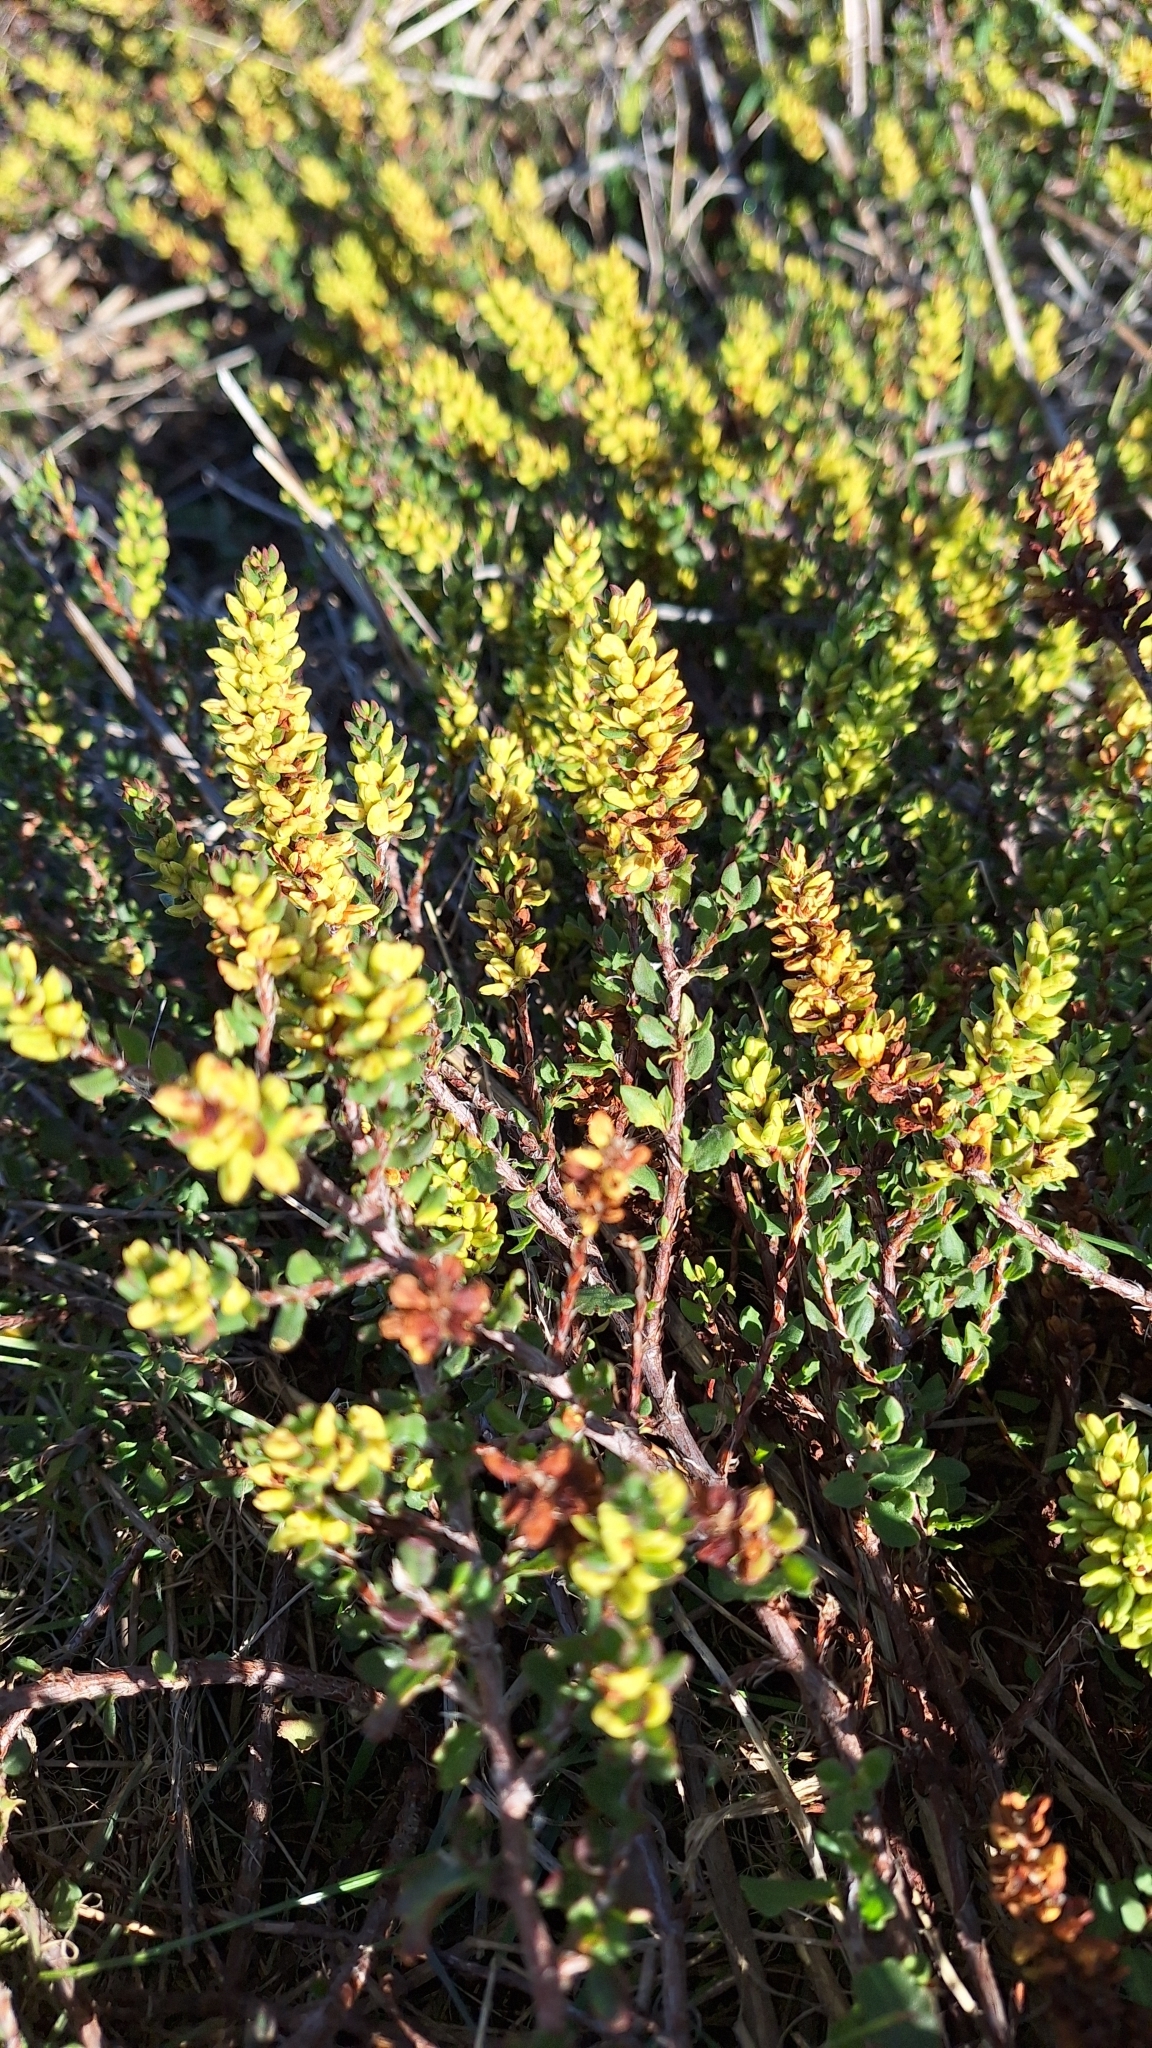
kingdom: Plantae
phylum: Tracheophyta
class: Magnoliopsida
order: Caryophyllales
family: Polygonaceae
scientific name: Polygonaceae
